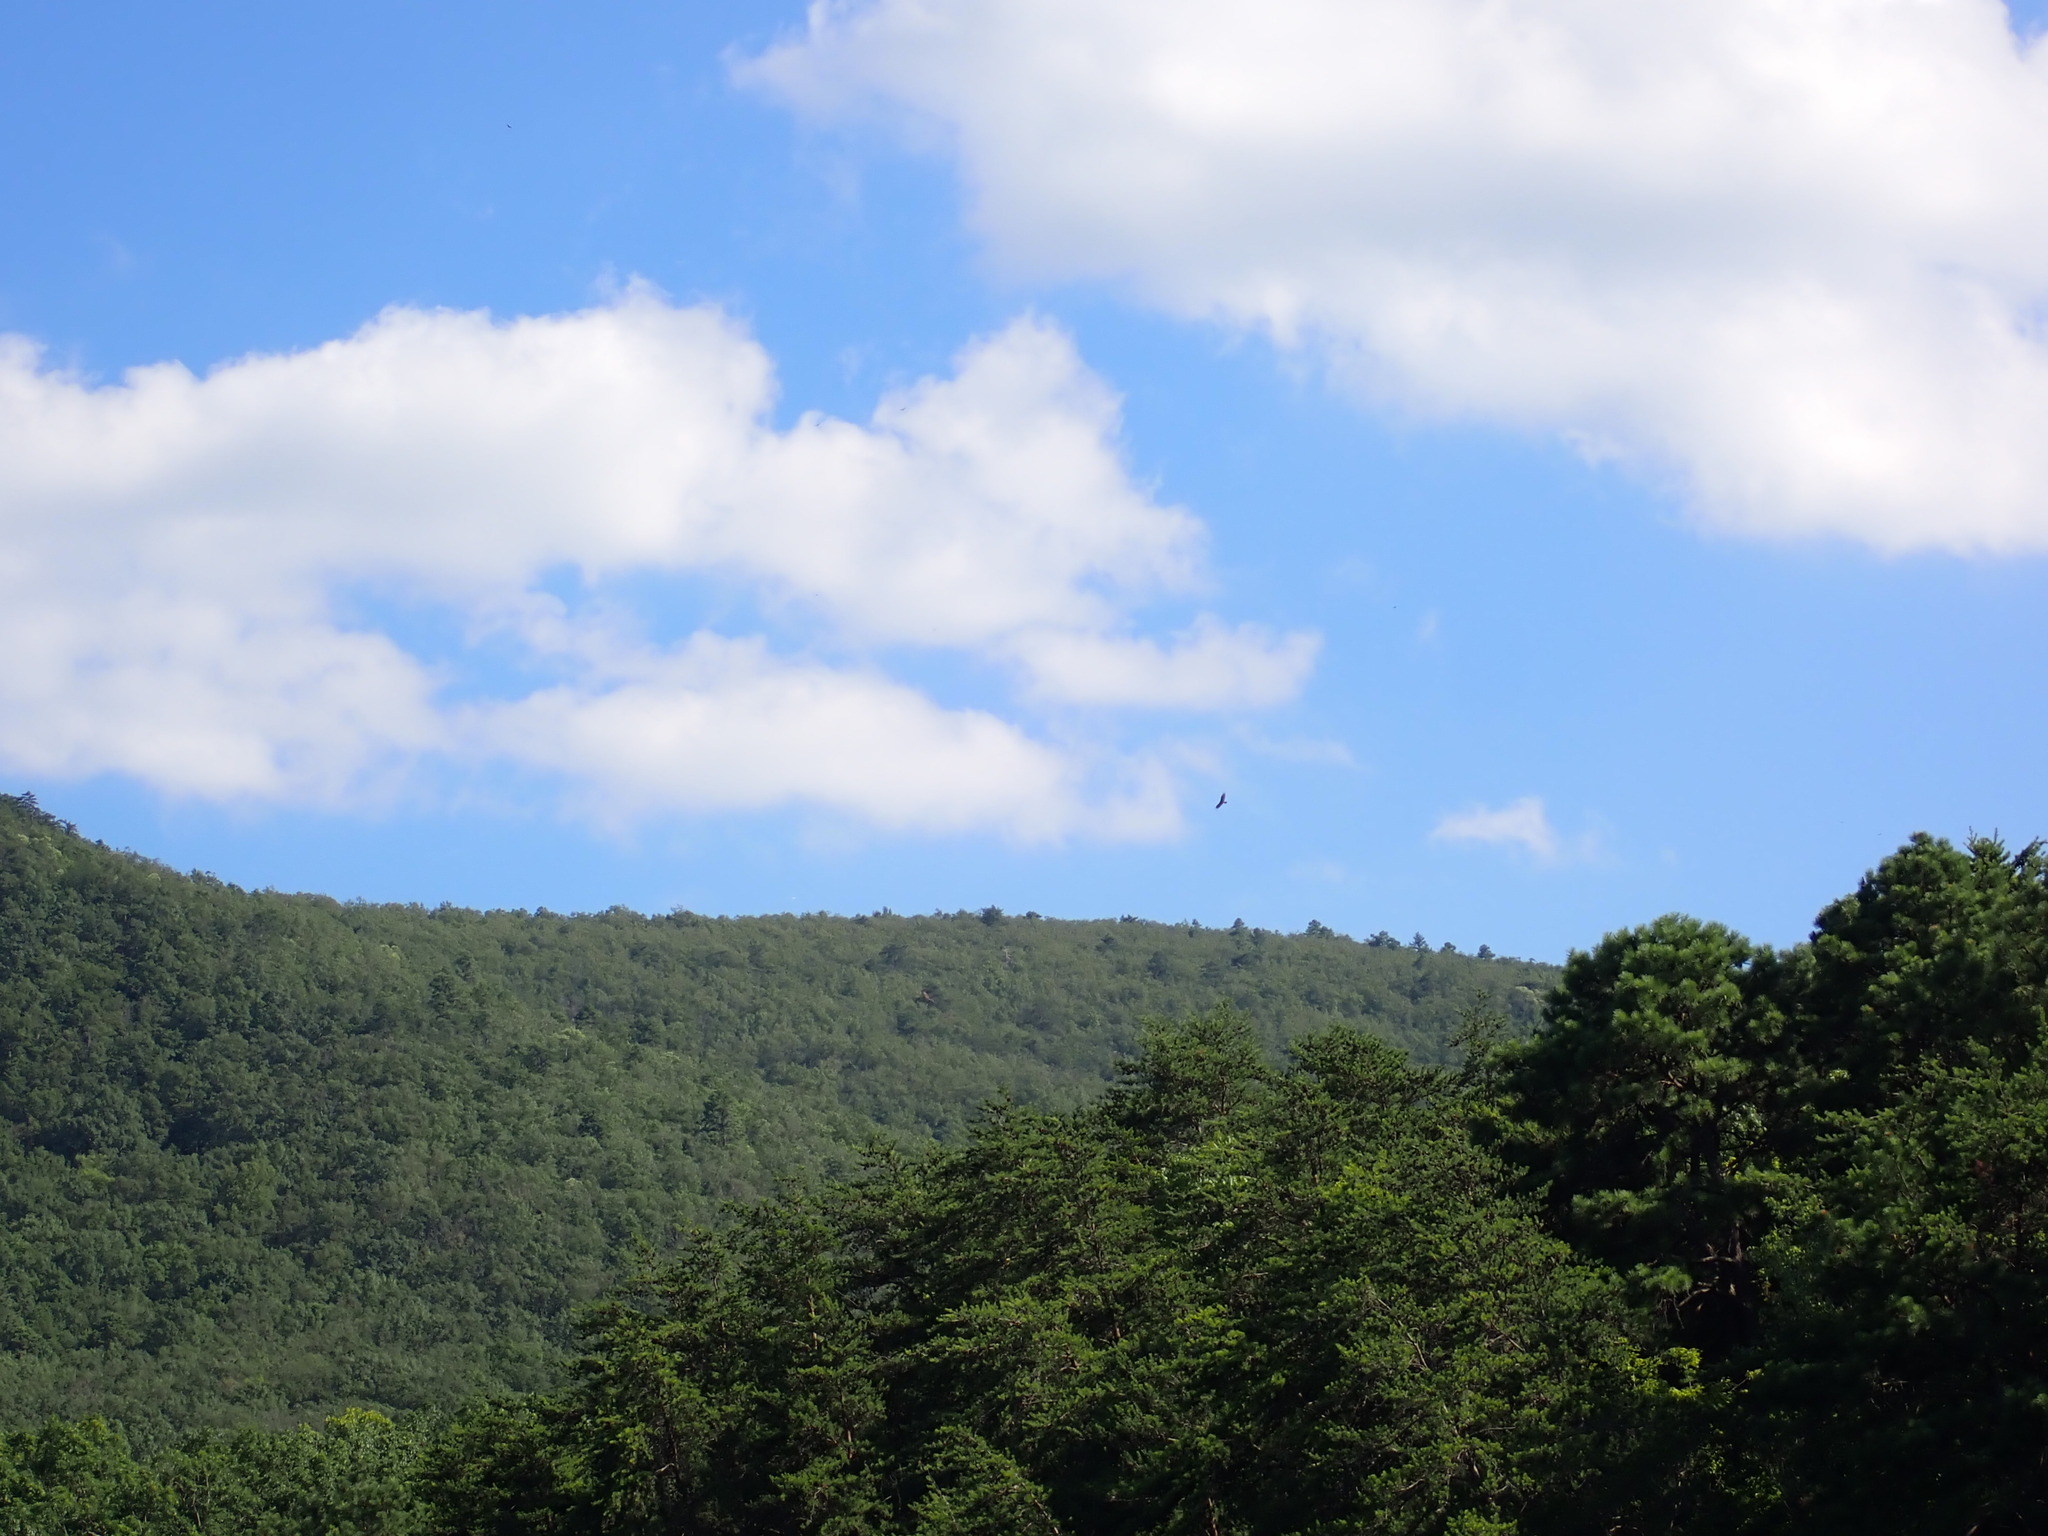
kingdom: Animalia
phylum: Chordata
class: Aves
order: Accipitriformes
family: Cathartidae
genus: Cathartes
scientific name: Cathartes aura
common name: Turkey vulture
